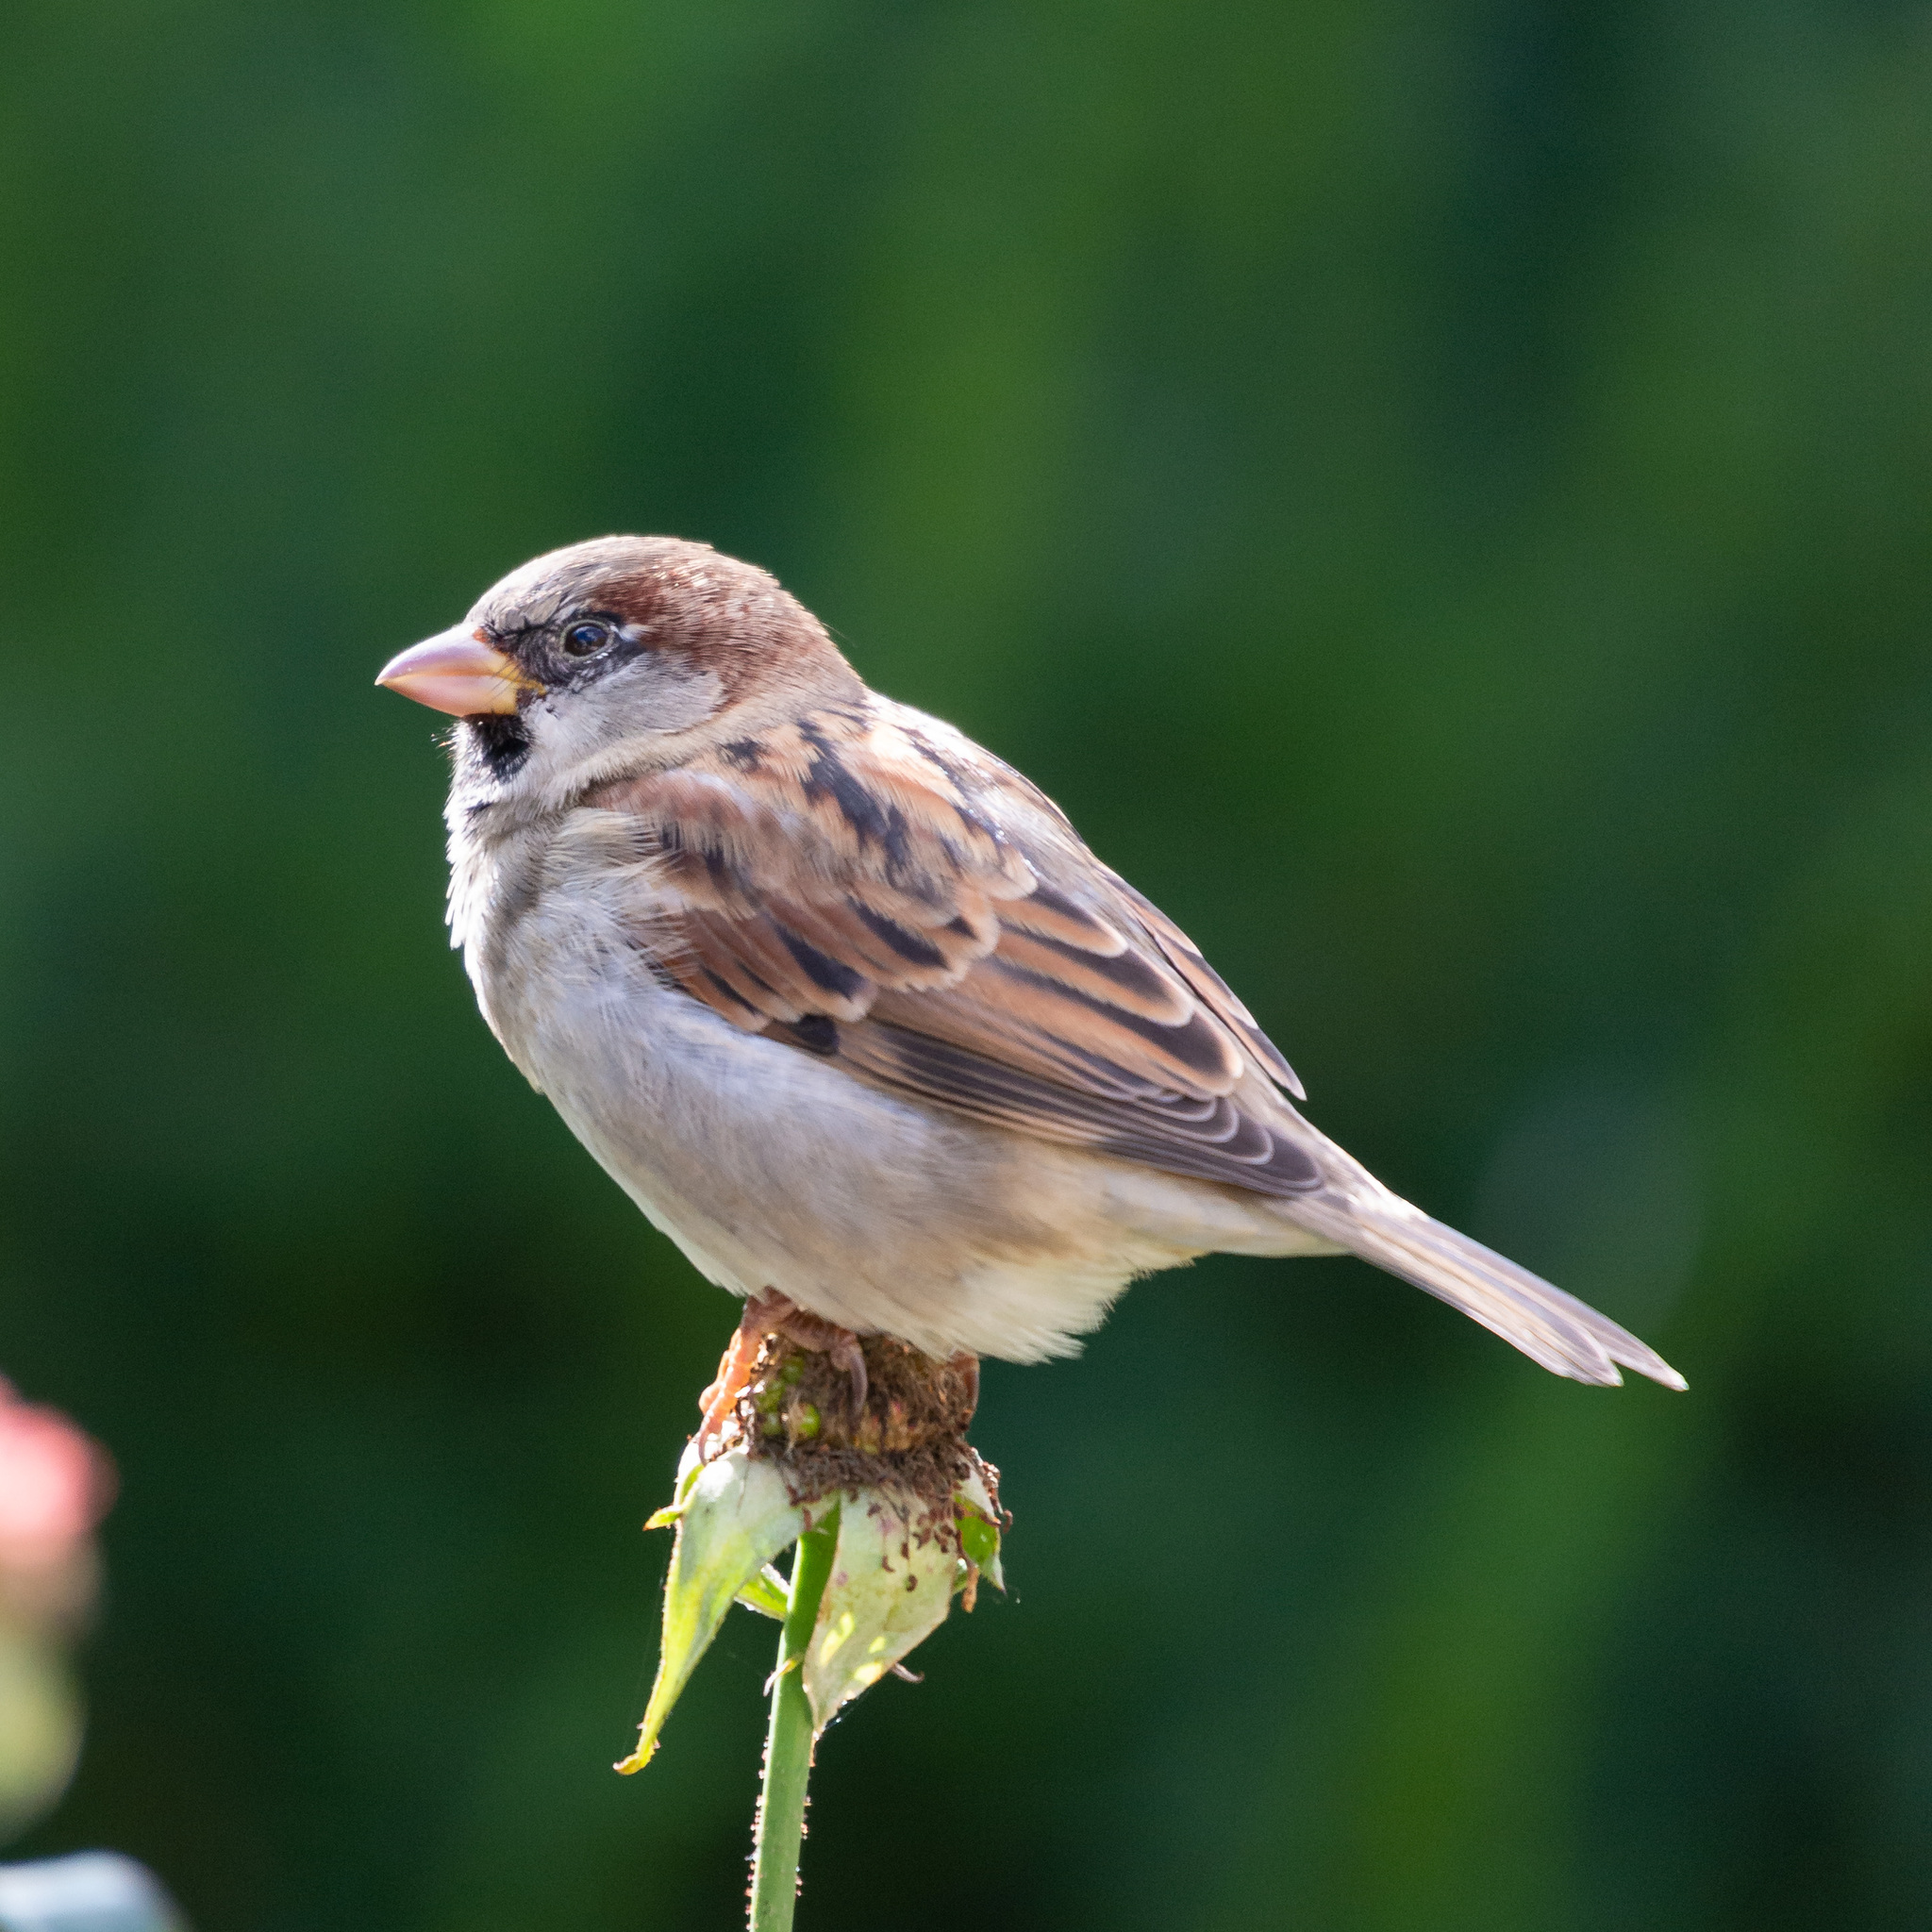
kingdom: Animalia
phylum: Chordata
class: Aves
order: Passeriformes
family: Passeridae
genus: Passer
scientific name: Passer domesticus
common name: House sparrow
